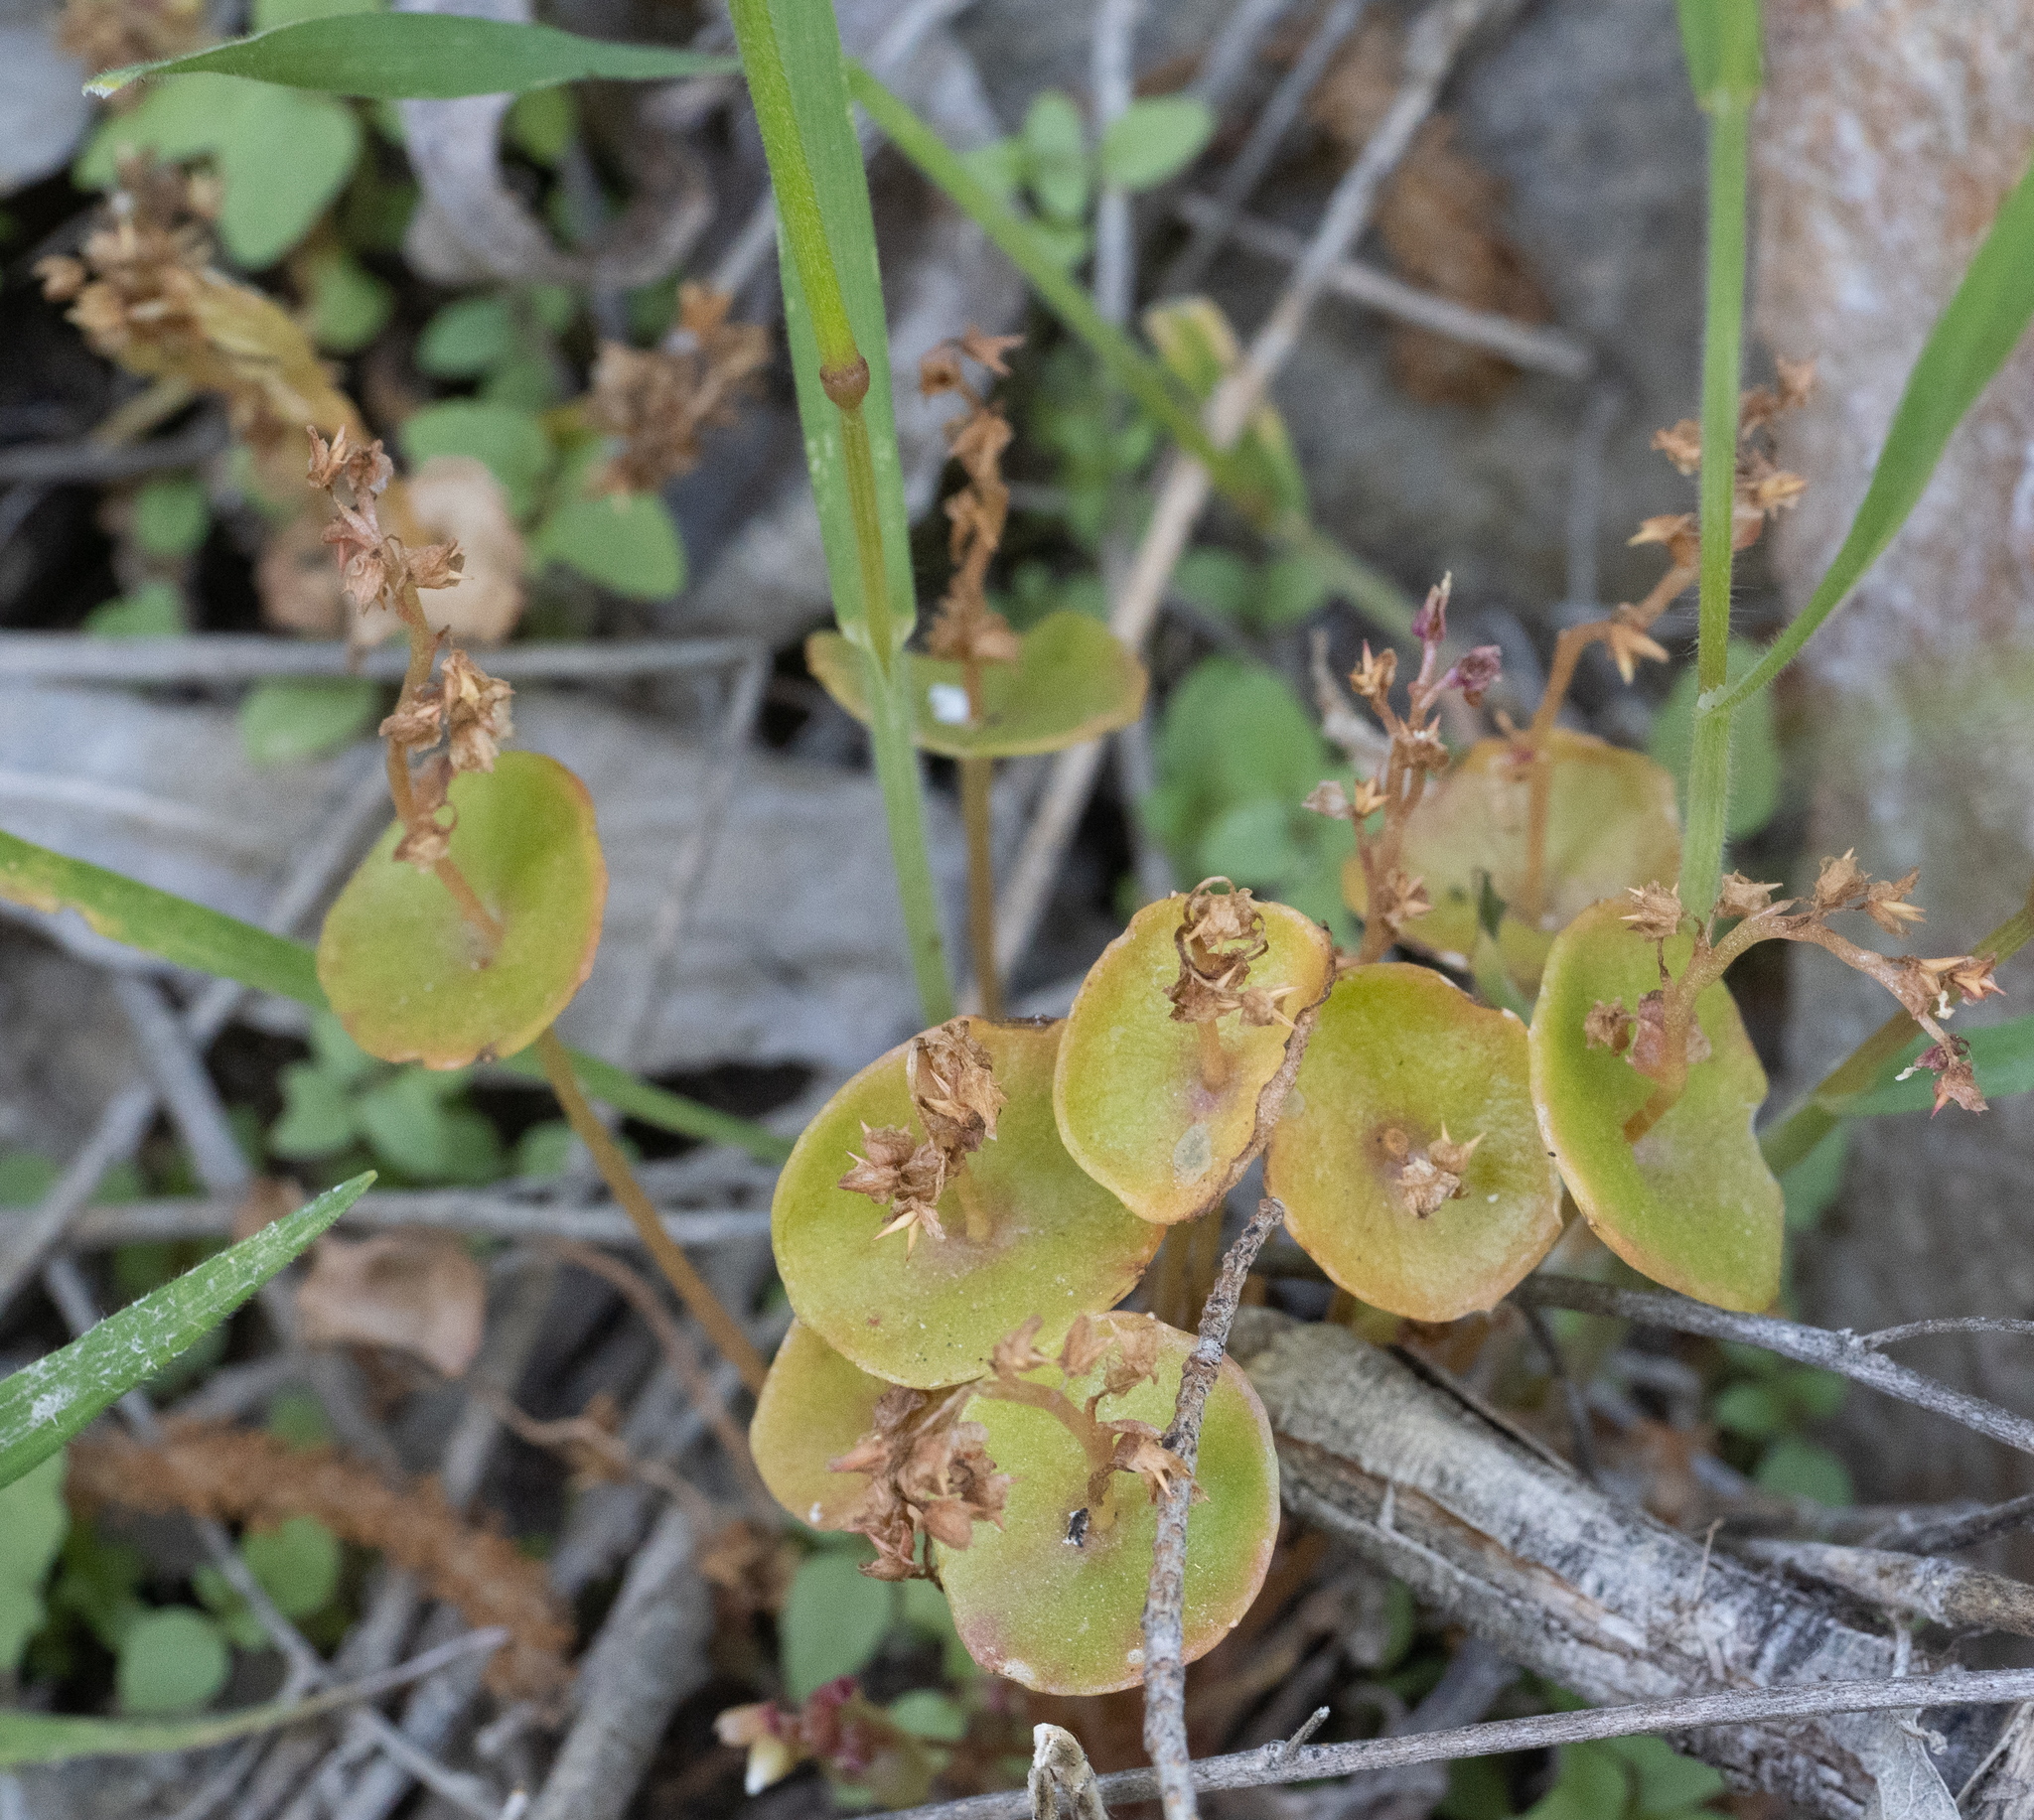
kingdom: Plantae
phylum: Tracheophyta
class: Magnoliopsida
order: Caryophyllales
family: Montiaceae
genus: Claytonia
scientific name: Claytonia perfoliata
